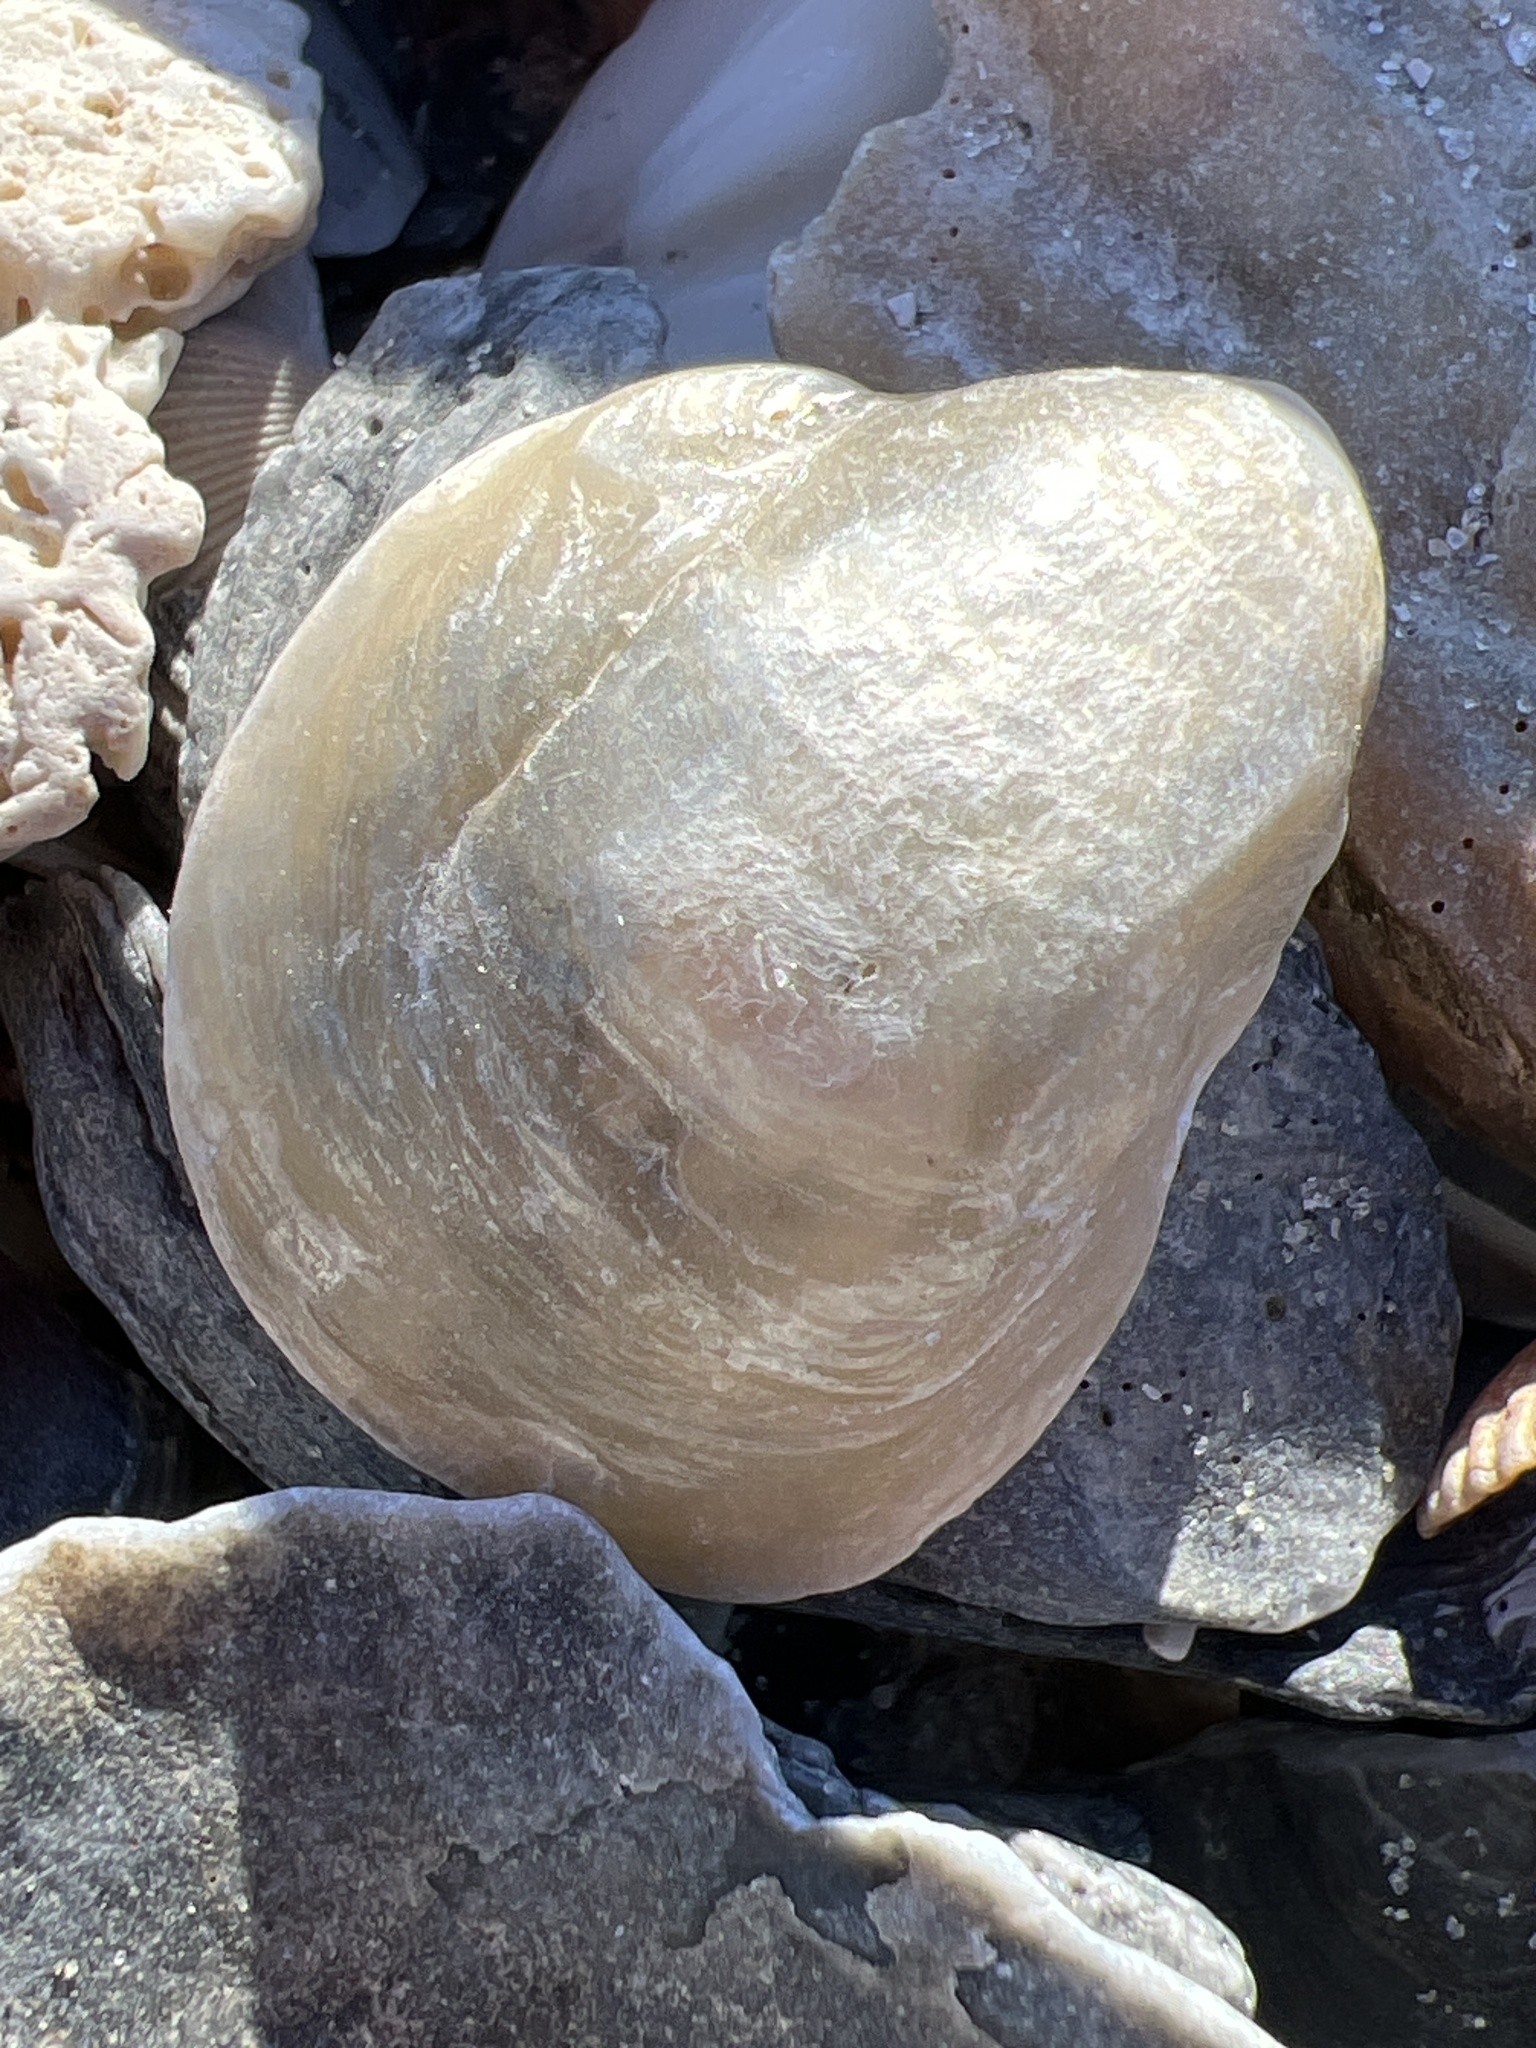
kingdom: Animalia
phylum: Mollusca
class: Bivalvia
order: Pectinida
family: Anomiidae
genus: Anomia
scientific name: Anomia simplex
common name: Common jingle shell
